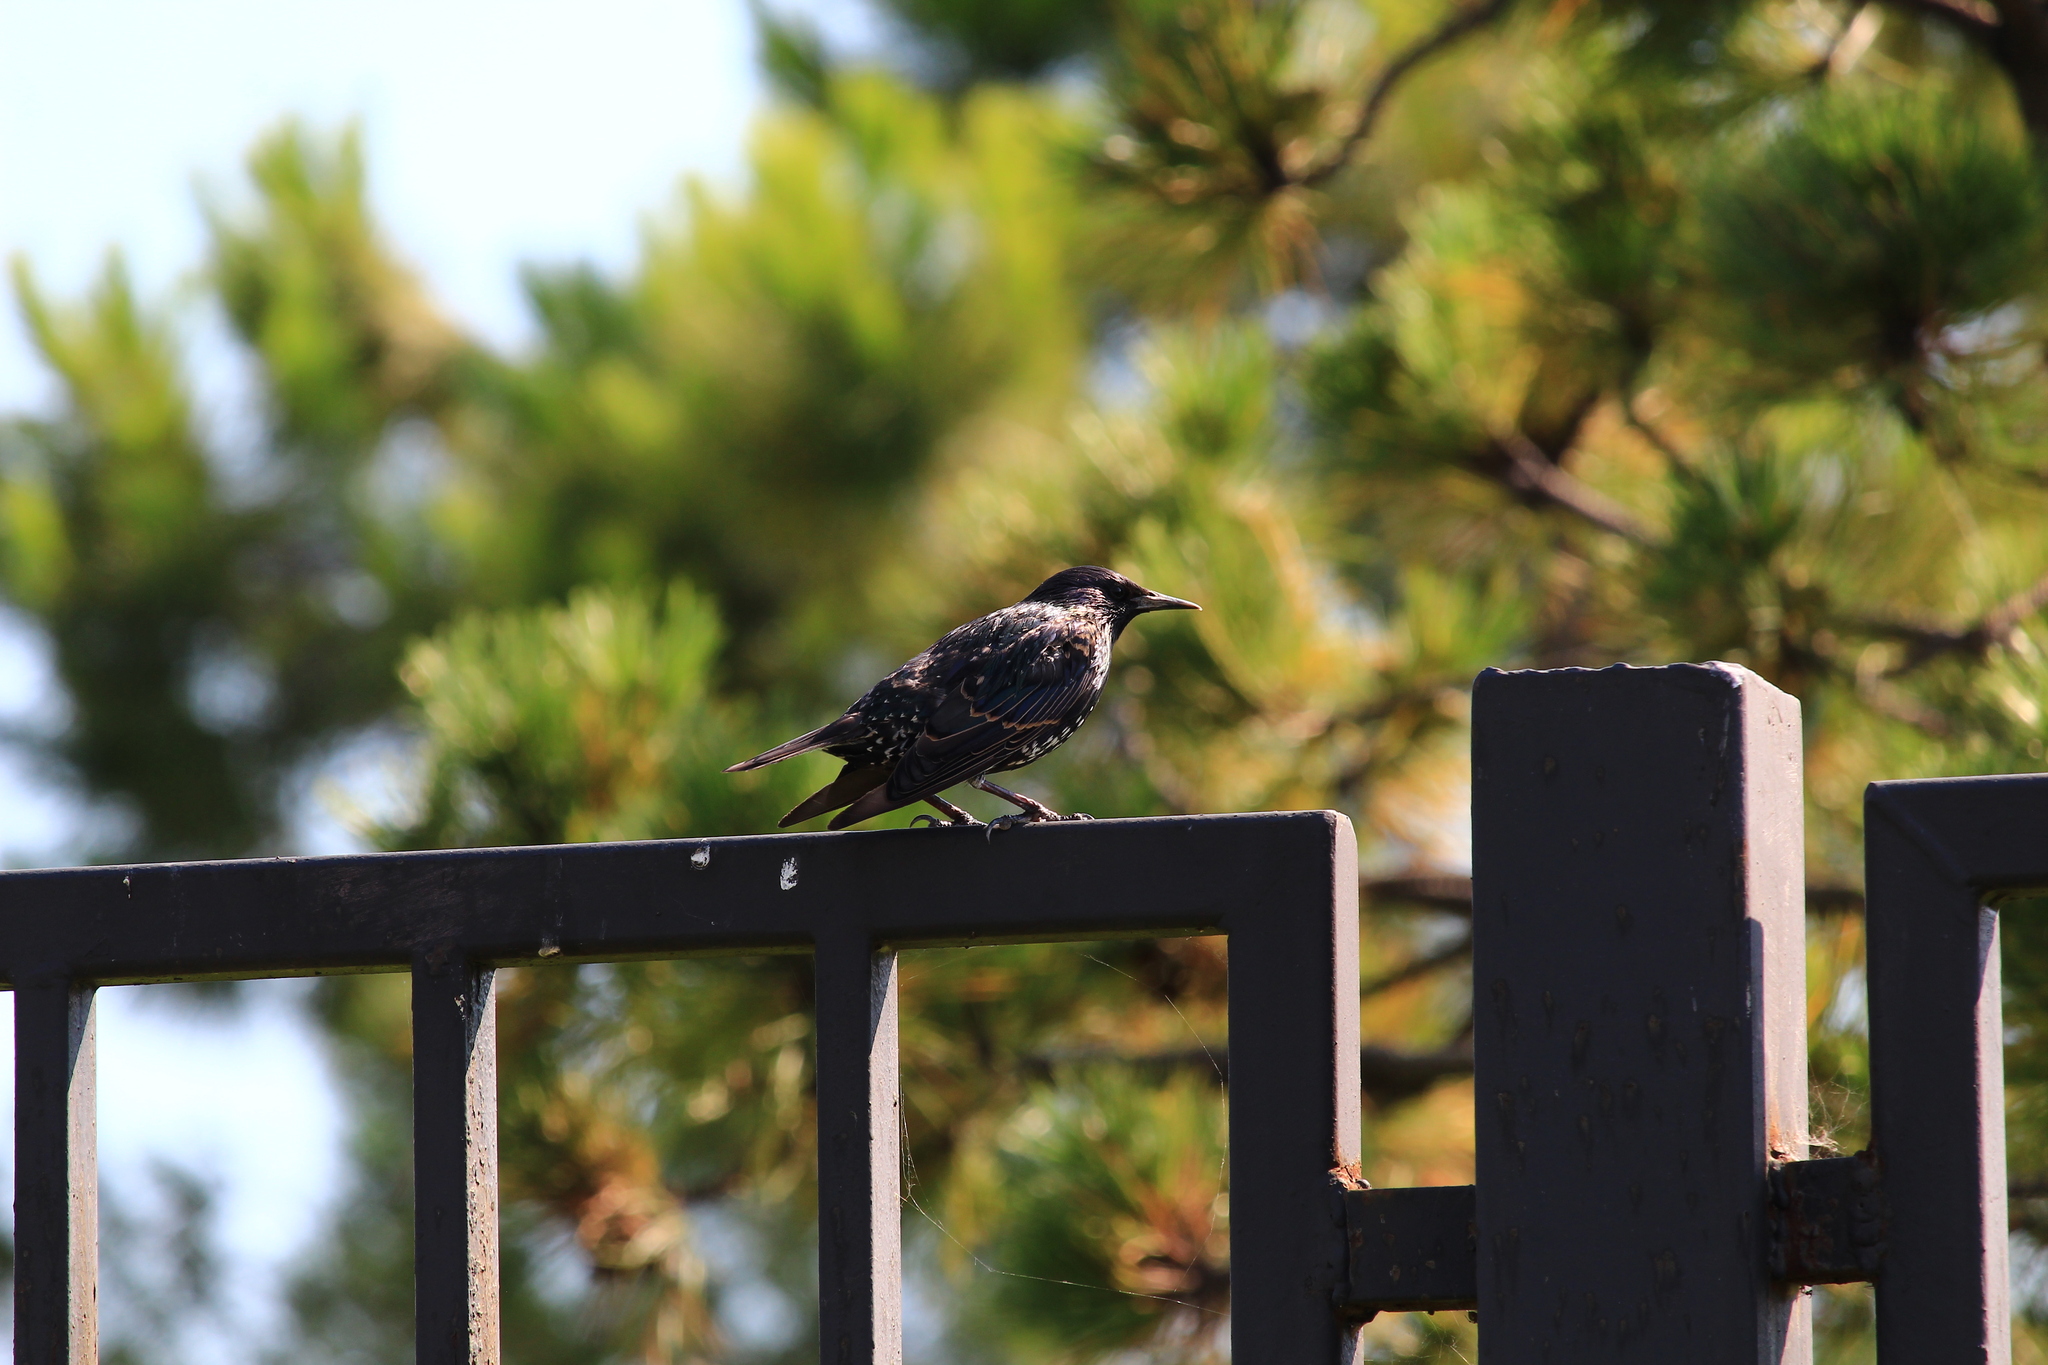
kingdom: Animalia
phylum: Chordata
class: Aves
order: Passeriformes
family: Sturnidae
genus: Sturnus
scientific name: Sturnus vulgaris
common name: Common starling
